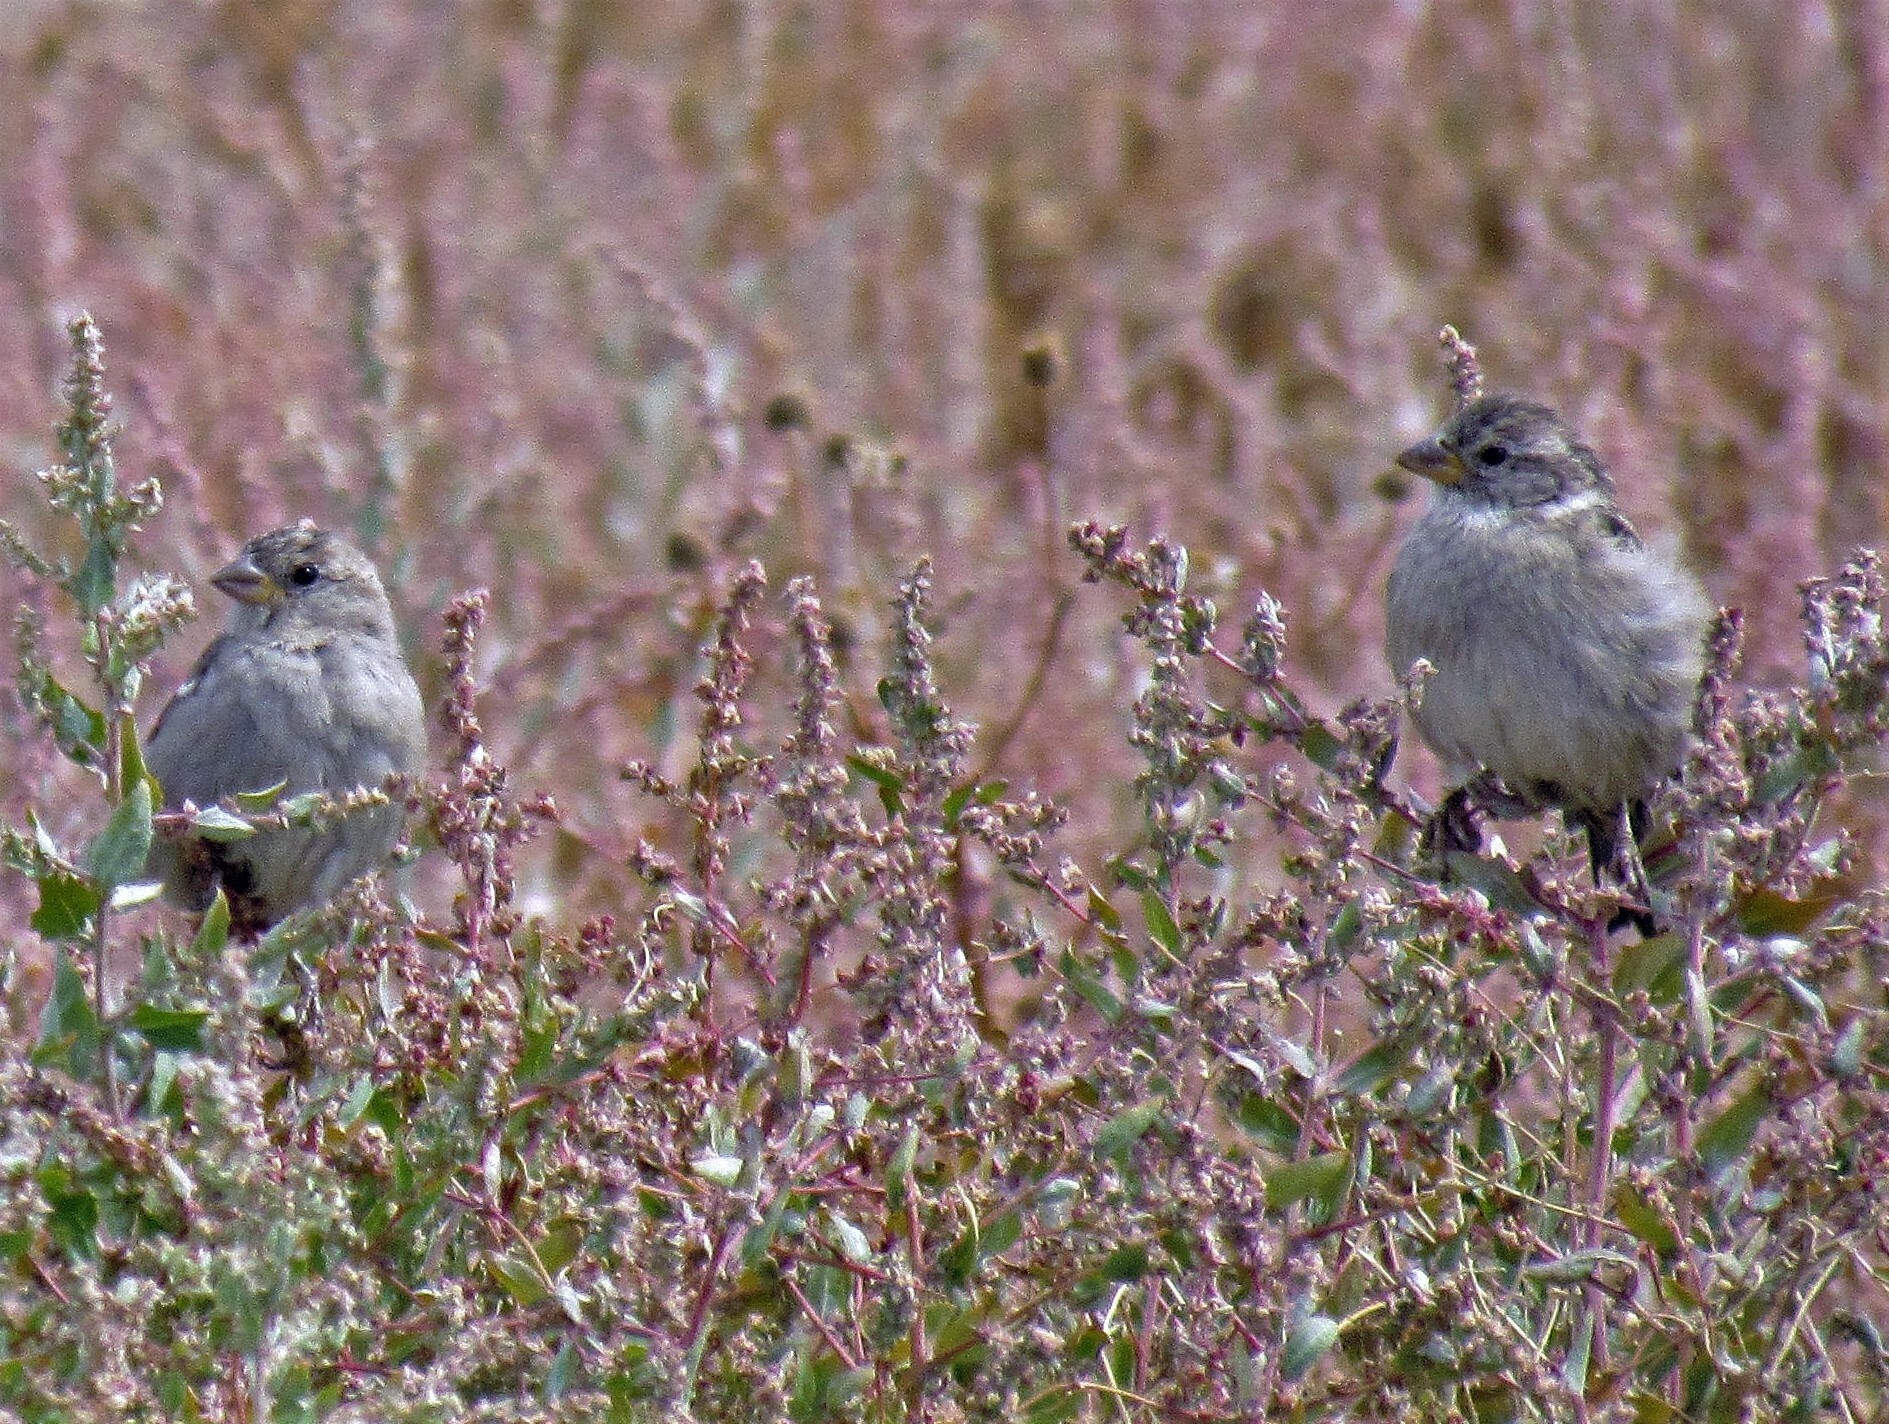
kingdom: Animalia
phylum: Chordata
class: Aves
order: Passeriformes
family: Passeridae
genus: Passer
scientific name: Passer domesticus
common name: House sparrow
